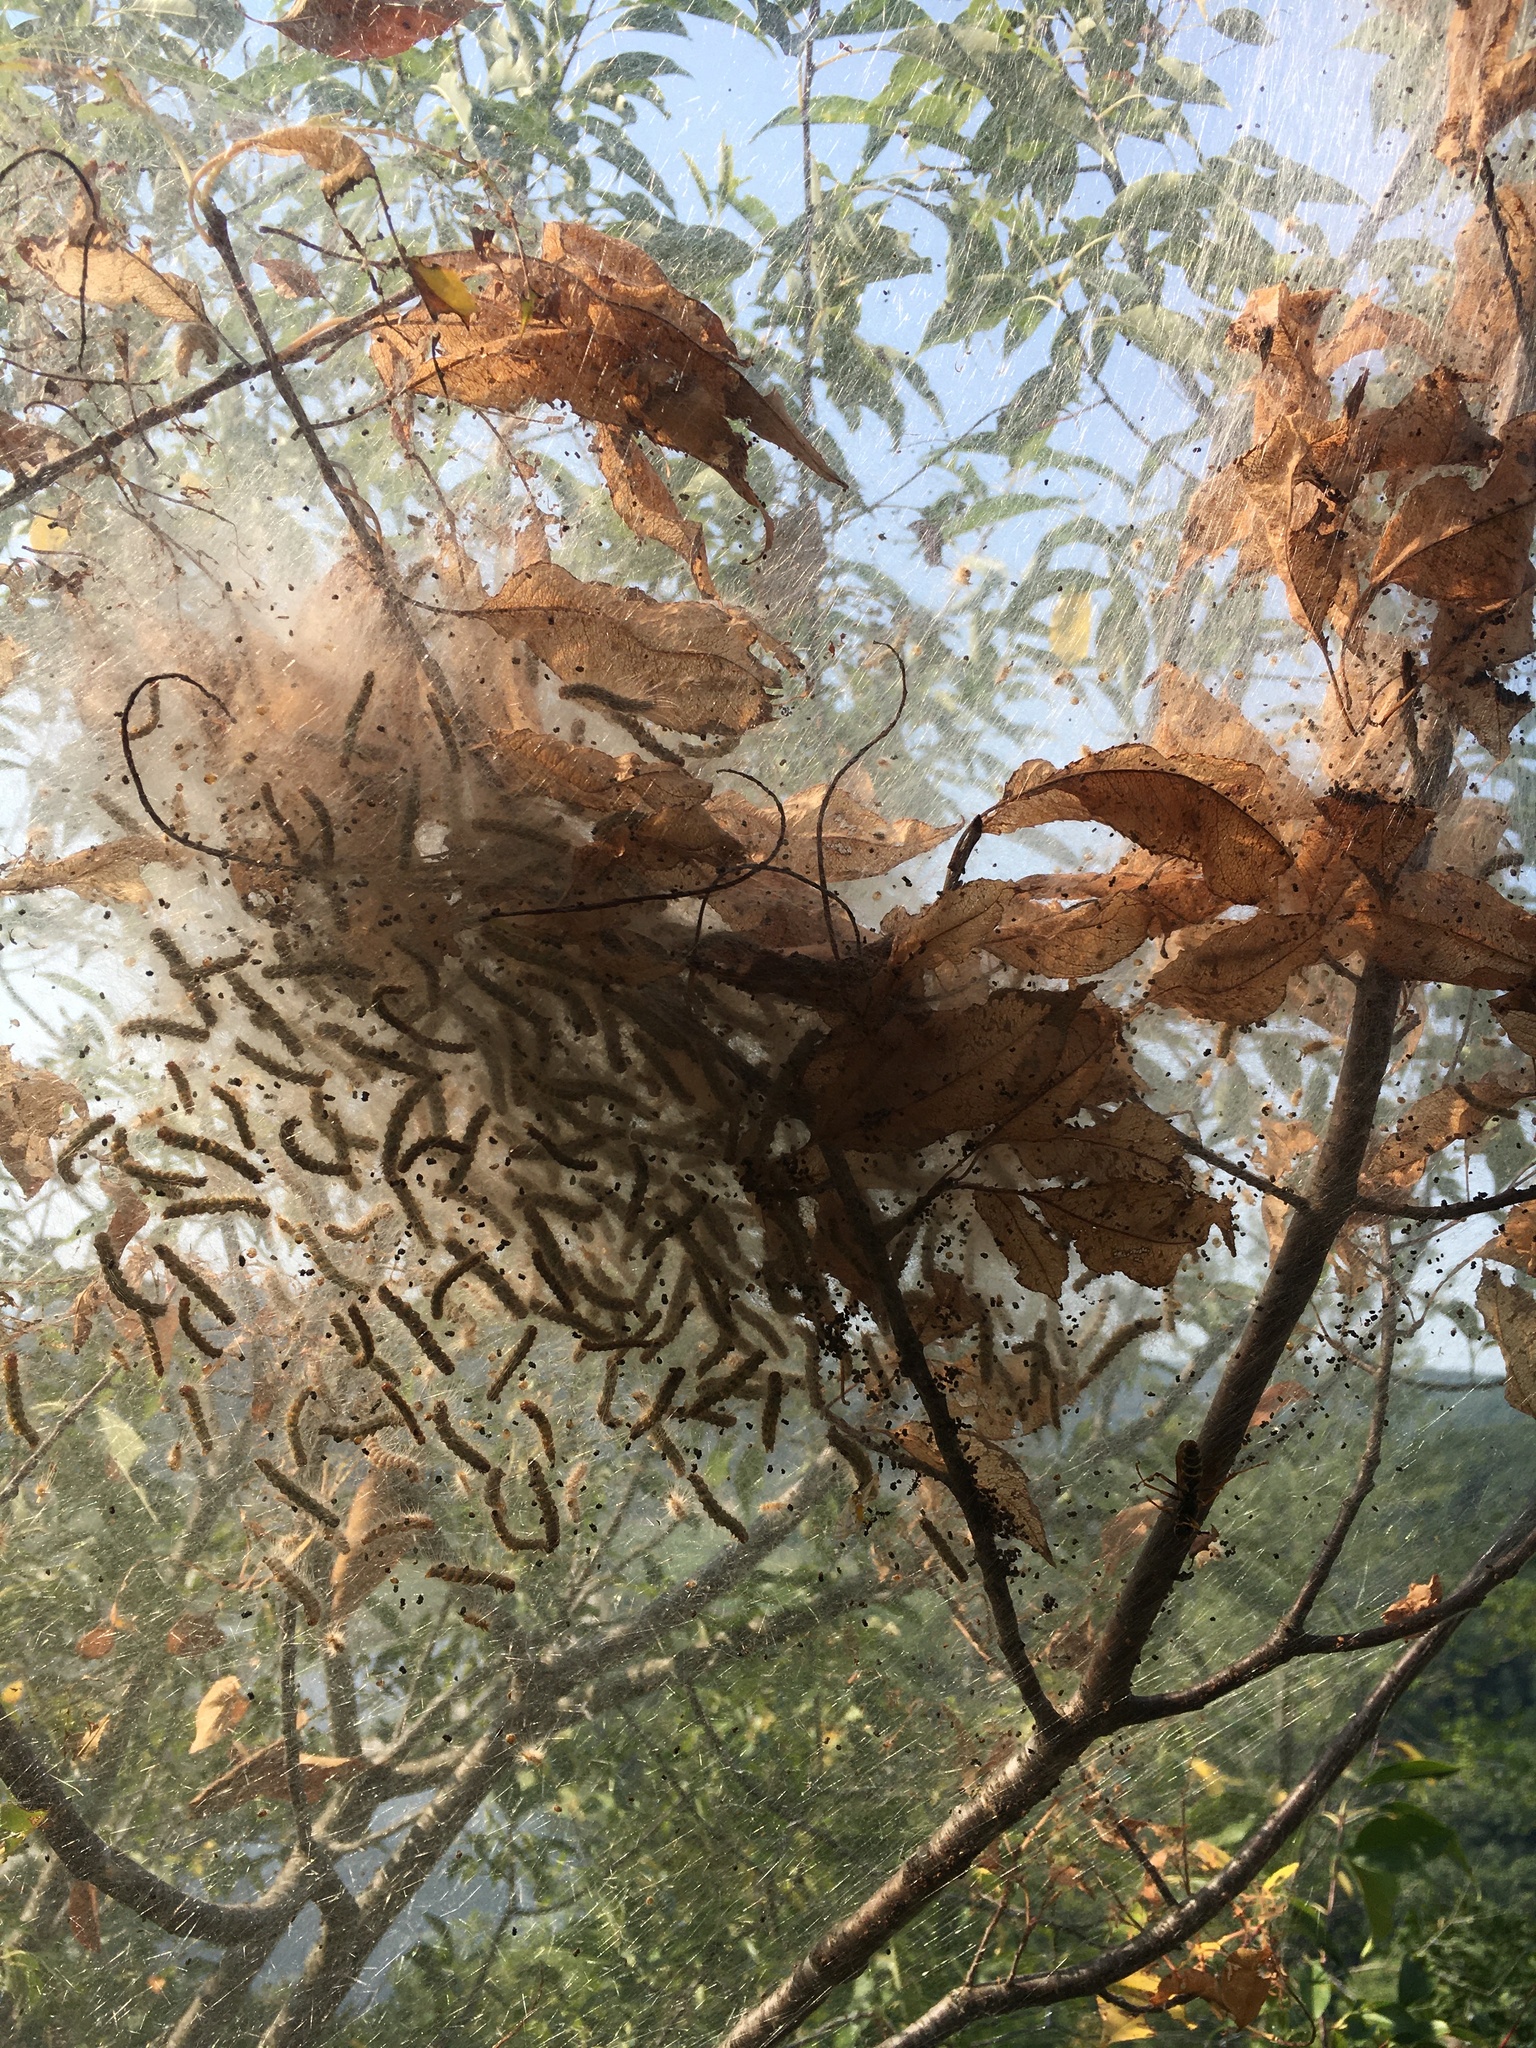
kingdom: Animalia
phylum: Arthropoda
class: Insecta
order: Lepidoptera
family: Erebidae
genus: Hyphantria
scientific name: Hyphantria cunea
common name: American white moth
